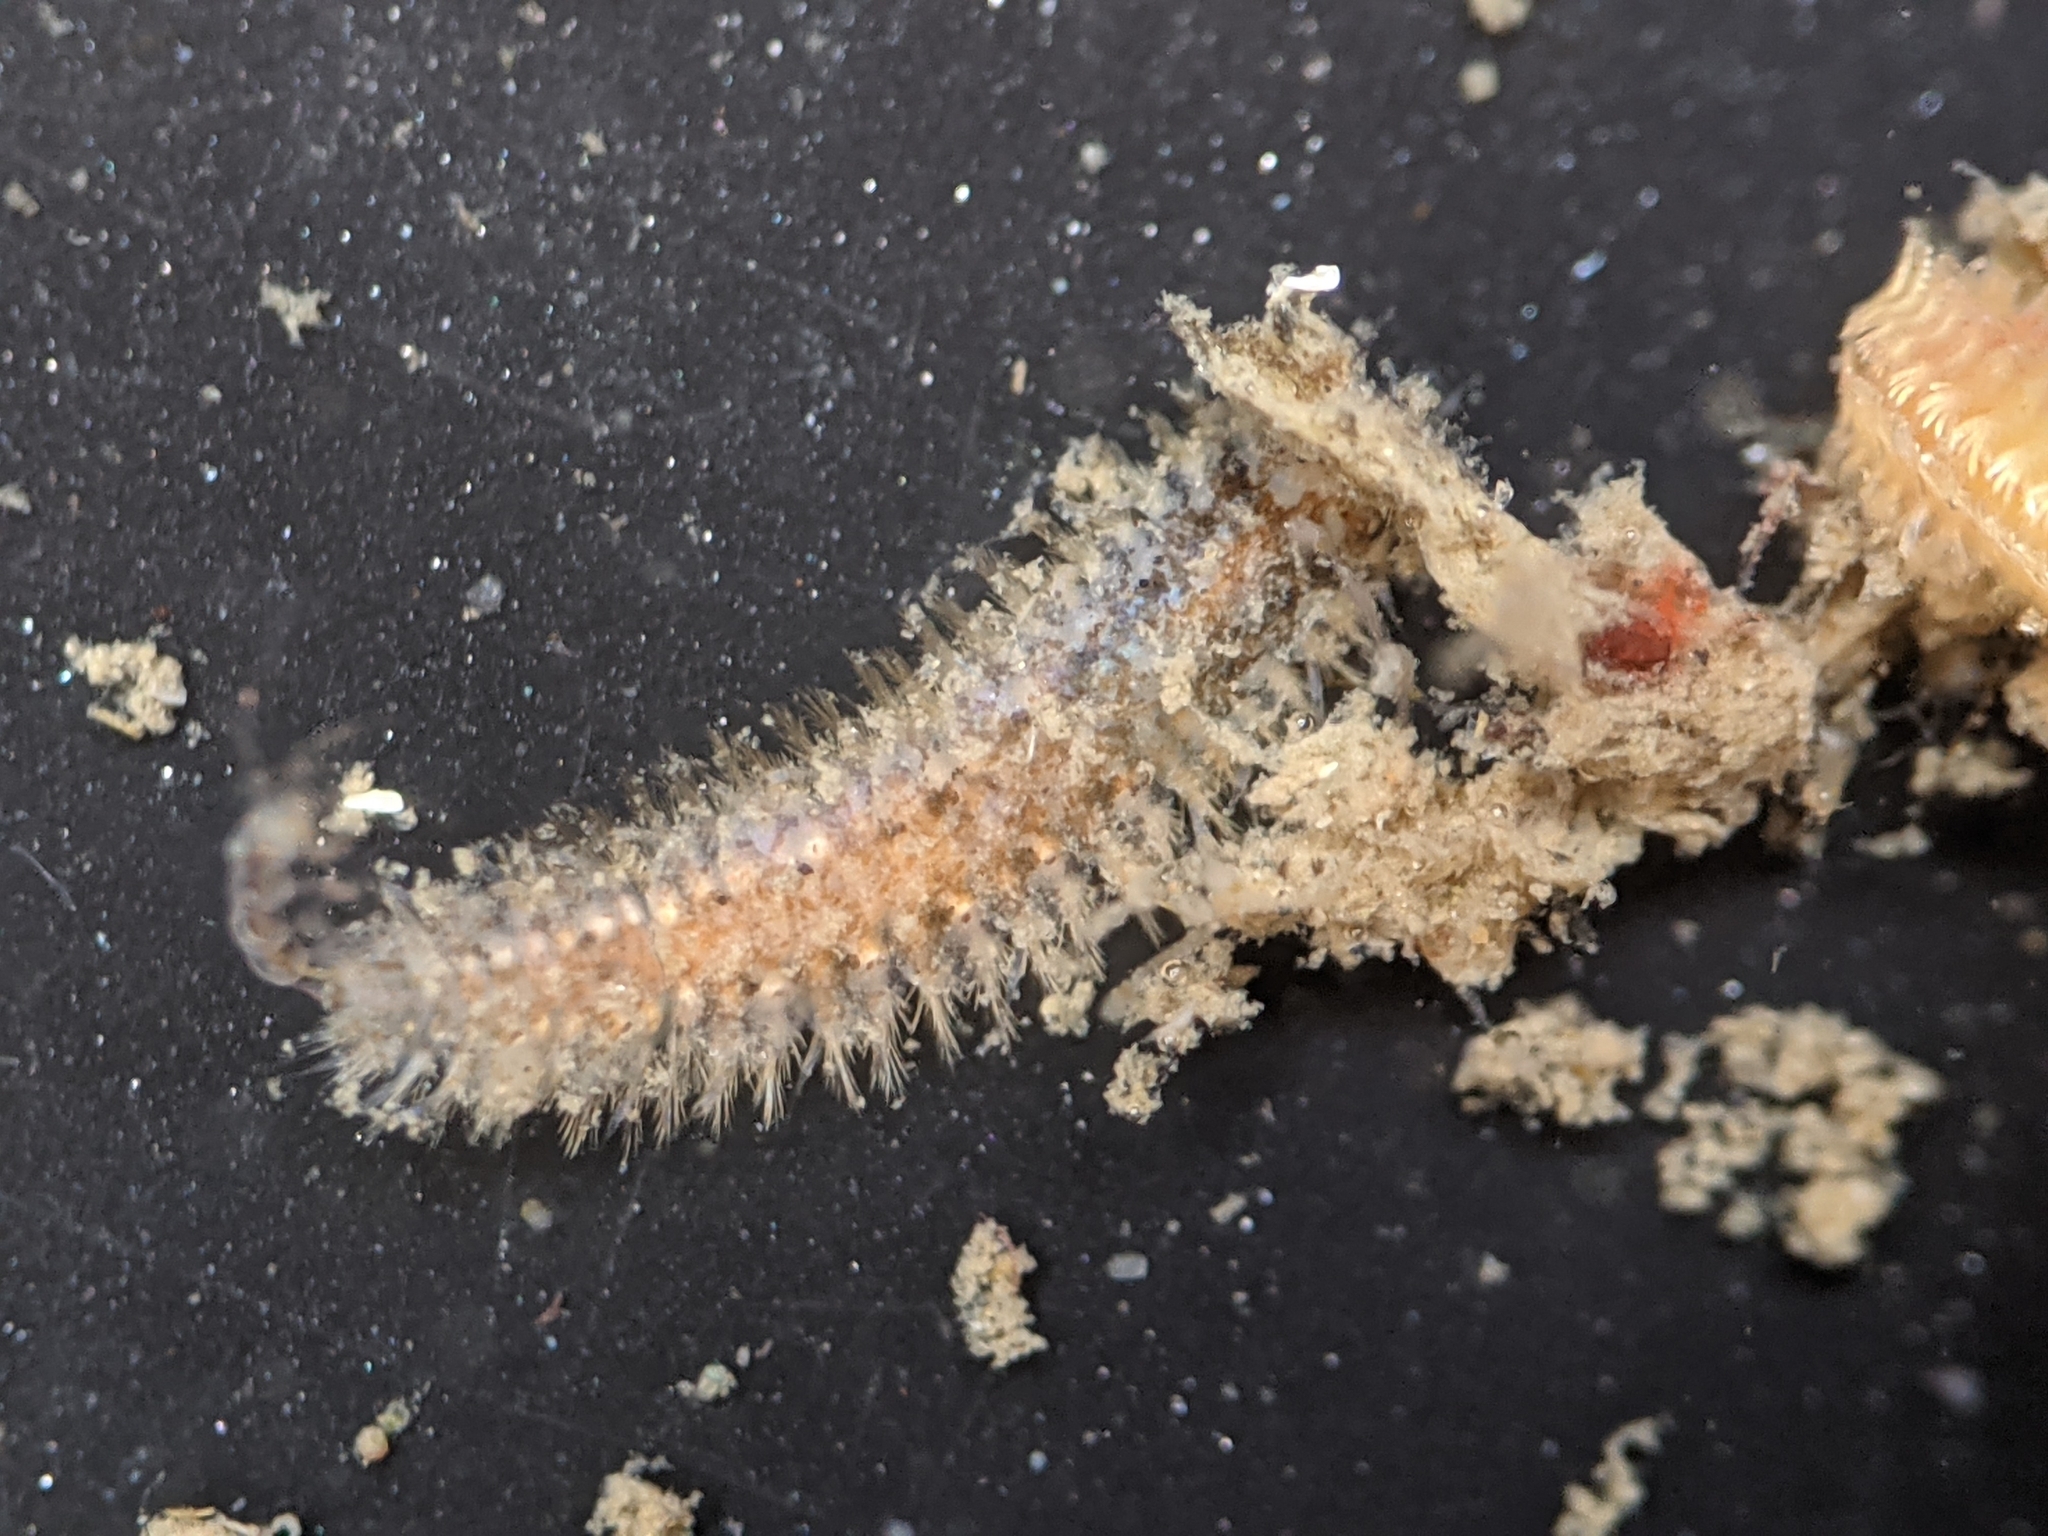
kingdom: Animalia
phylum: Annelida
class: Polychaeta
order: Phyllodocida
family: Polynoidae
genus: Harmothoe
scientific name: Harmothoe imbricata
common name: Fifteen-scaled worm
